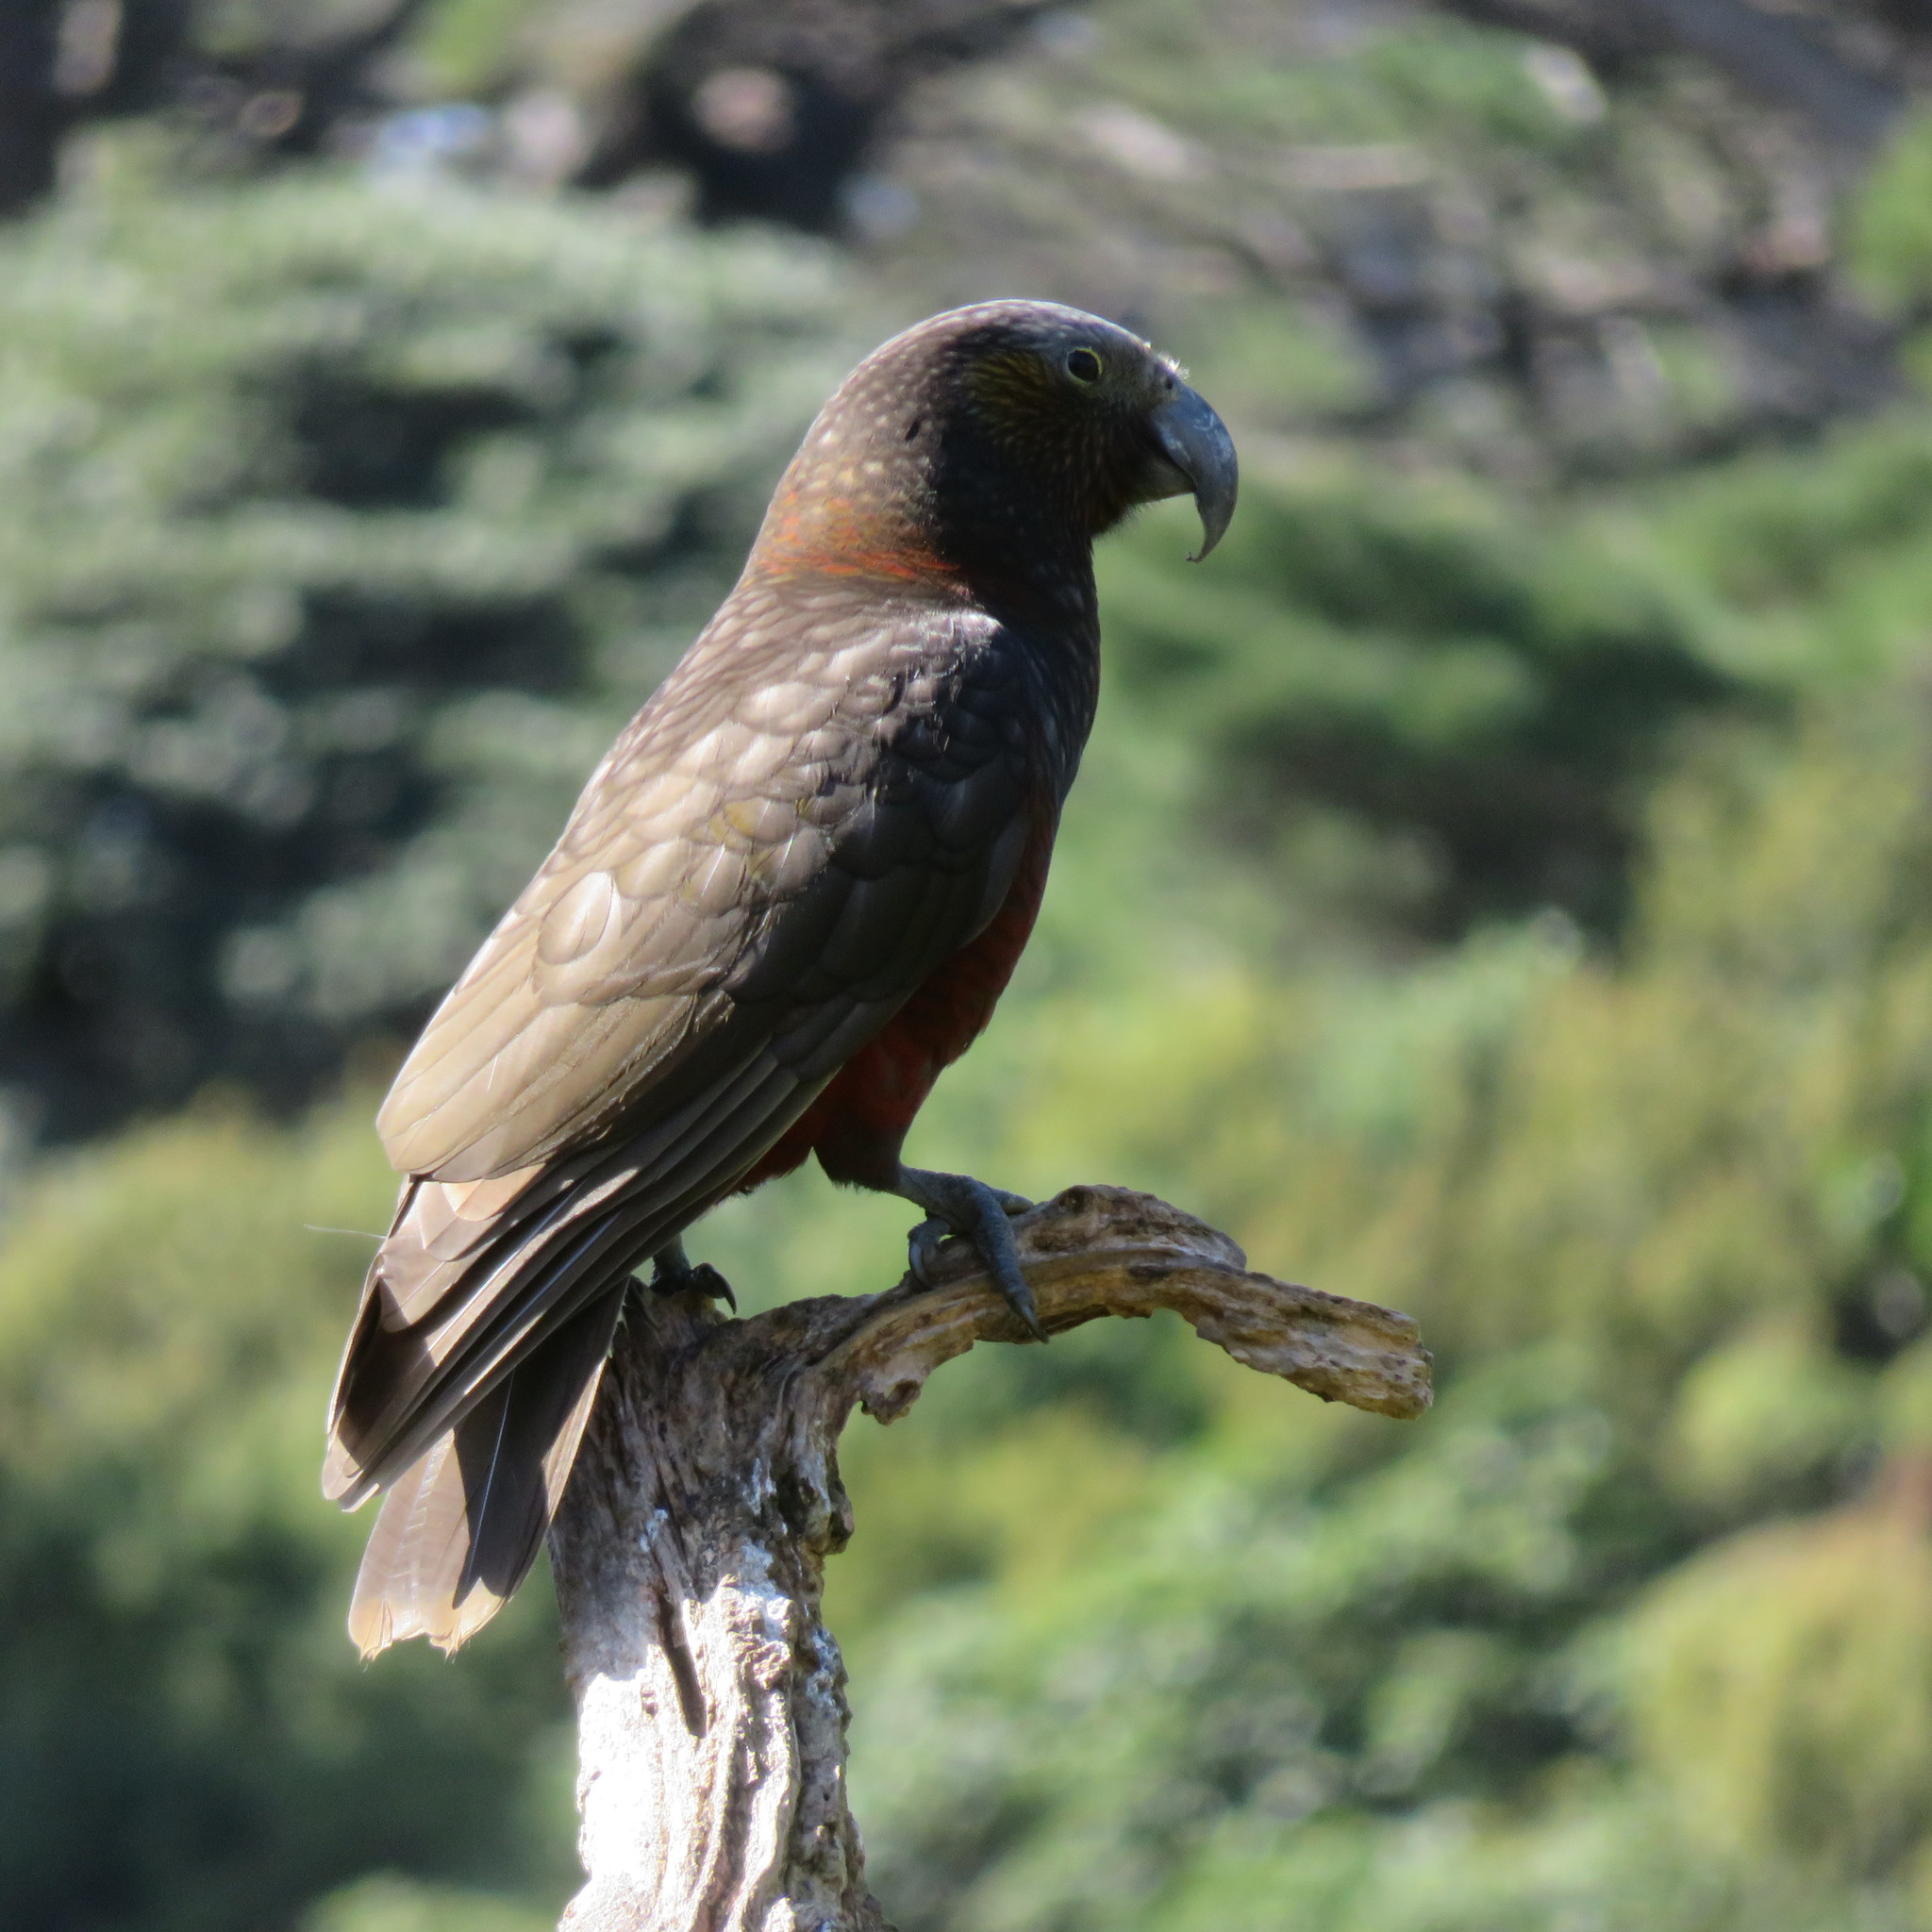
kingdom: Animalia
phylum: Chordata
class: Aves
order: Psittaciformes
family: Psittacidae
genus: Nestor
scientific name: Nestor meridionalis
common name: New zealand kaka
